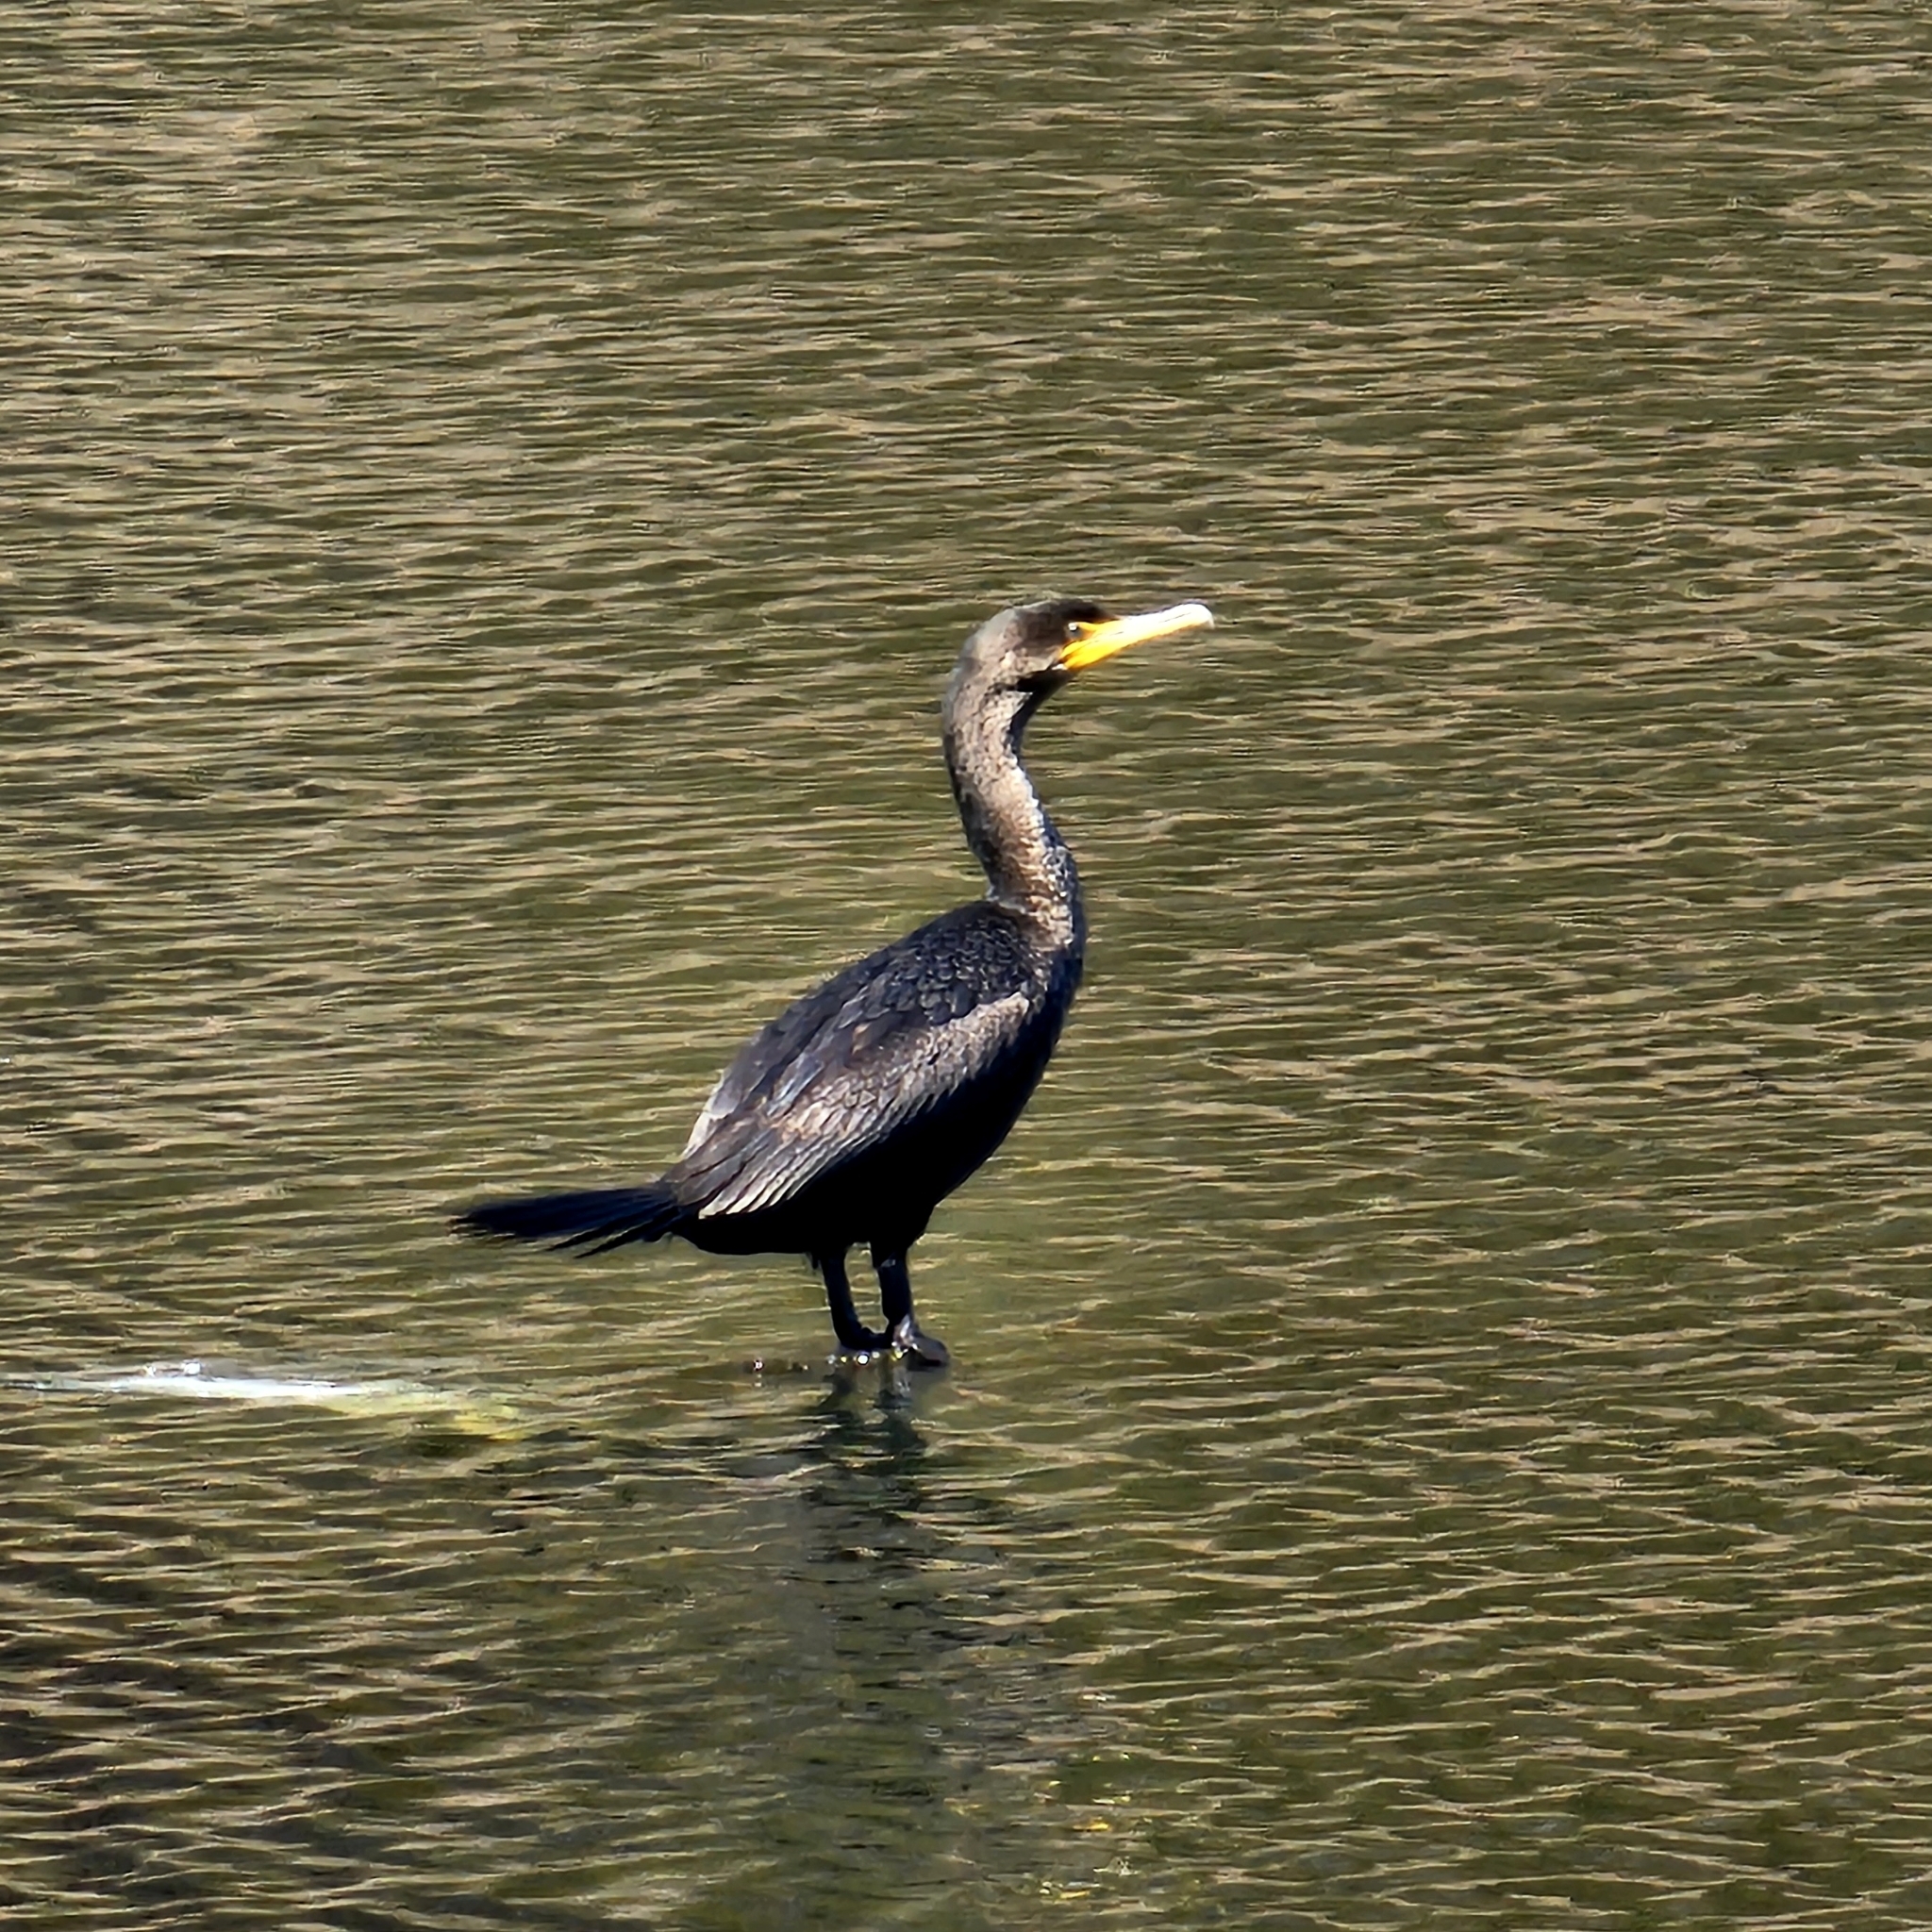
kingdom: Animalia
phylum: Chordata
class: Aves
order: Suliformes
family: Phalacrocoracidae
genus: Phalacrocorax
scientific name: Phalacrocorax auritus
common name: Double-crested cormorant
